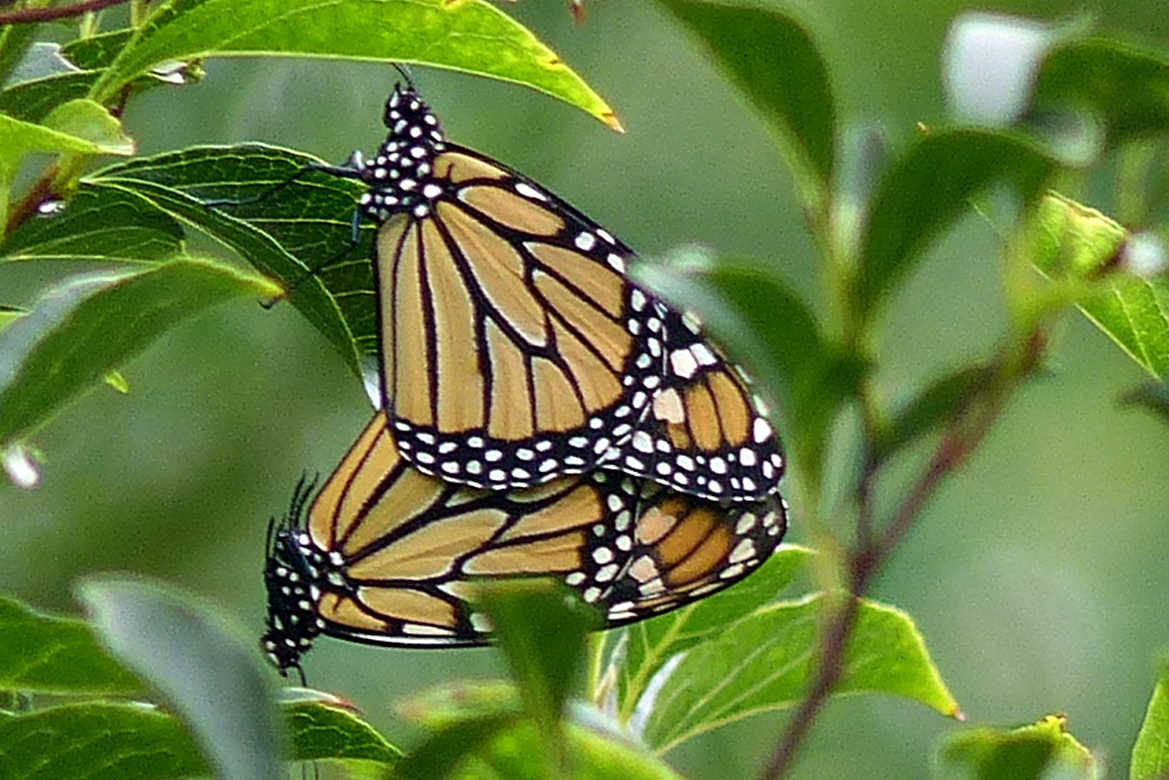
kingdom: Animalia
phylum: Arthropoda
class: Insecta
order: Lepidoptera
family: Nymphalidae
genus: Danaus
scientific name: Danaus plexippus
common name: Monarch
